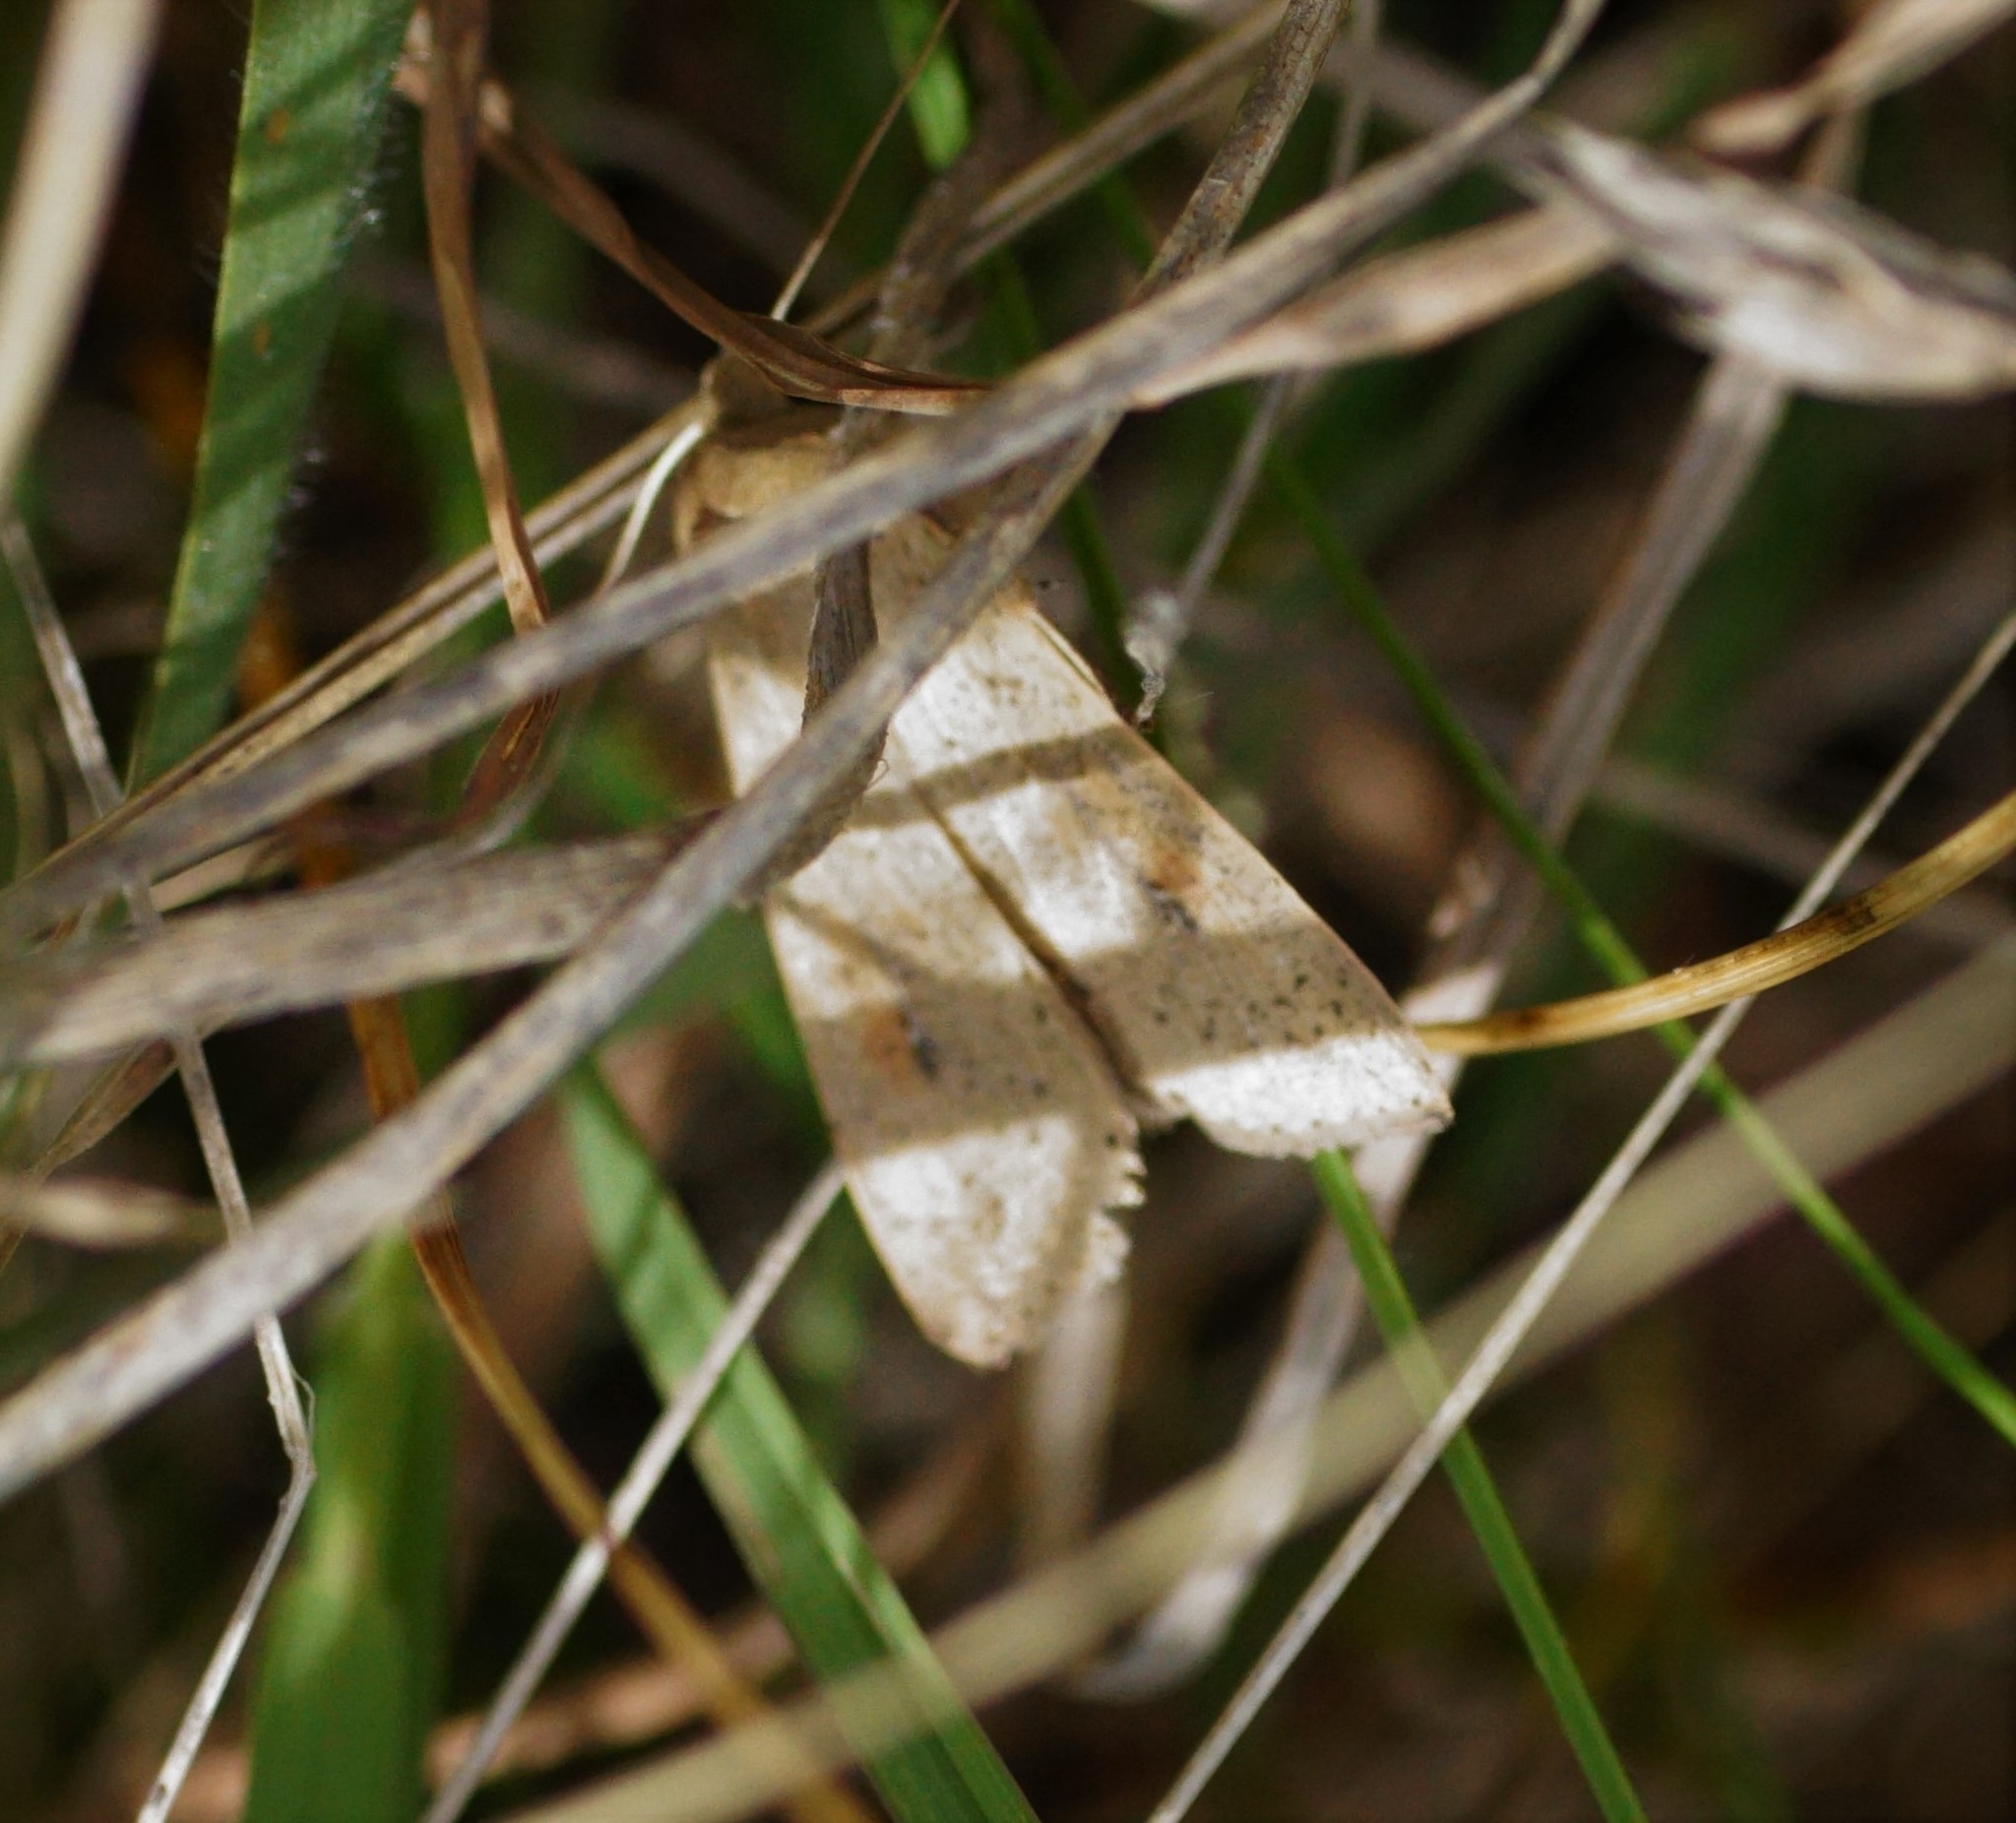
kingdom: Animalia
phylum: Arthropoda
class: Insecta
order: Lepidoptera
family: Noctuidae
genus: Mythimna
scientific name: Mythimna convecta
